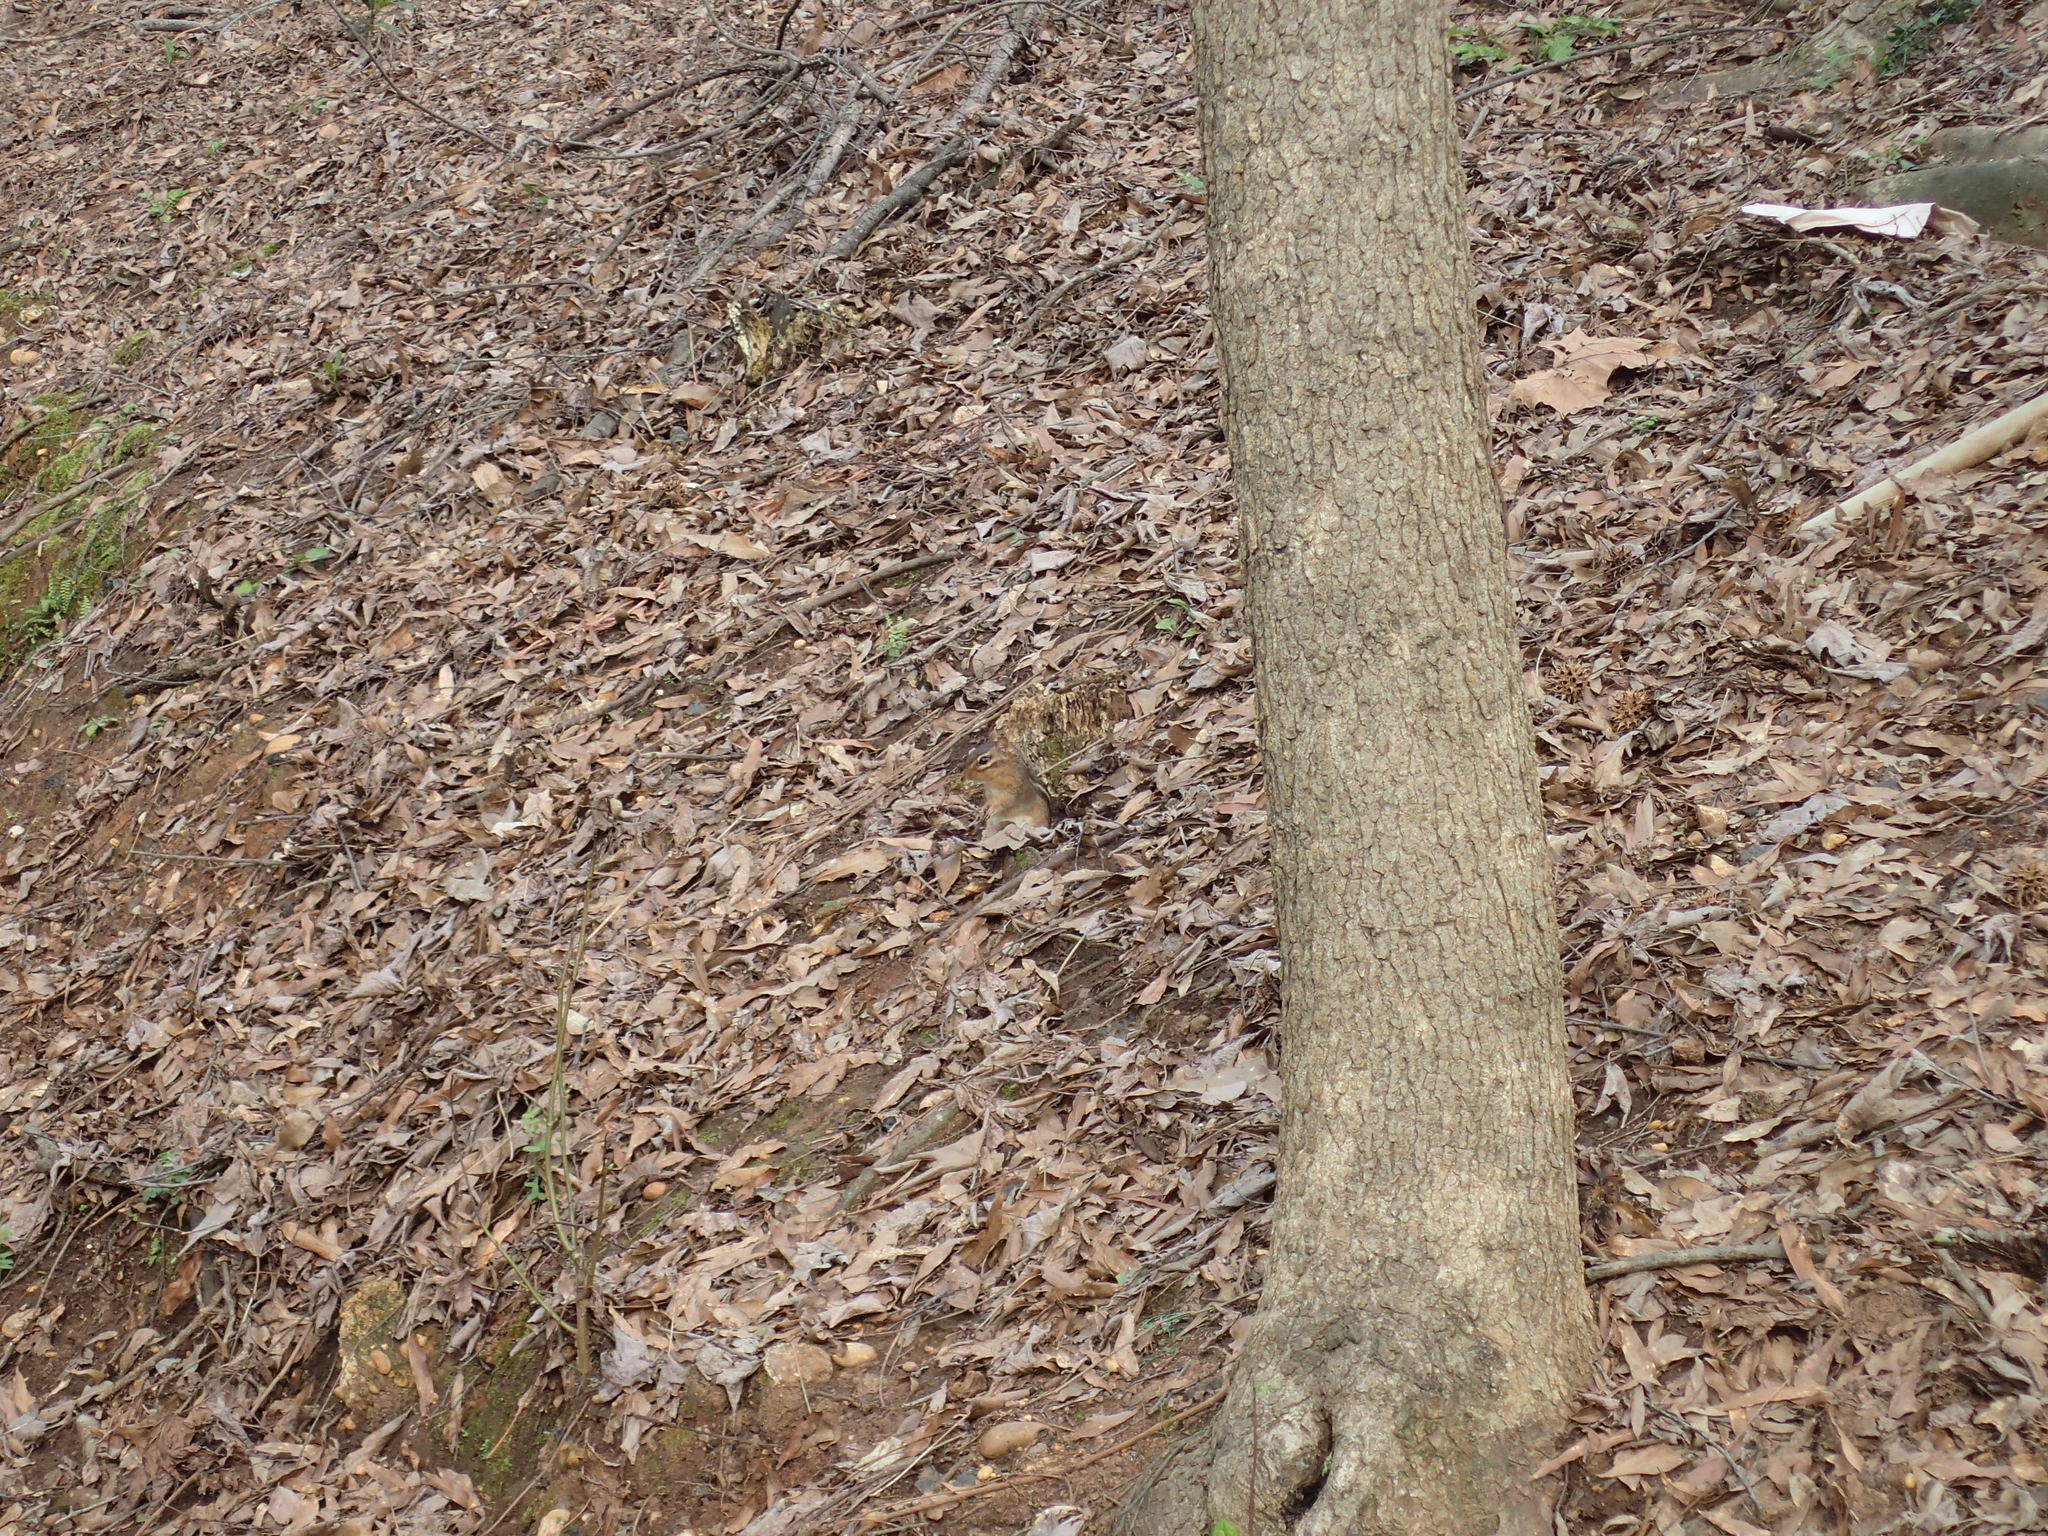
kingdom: Animalia
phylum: Chordata
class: Mammalia
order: Rodentia
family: Sciuridae
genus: Tamias
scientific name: Tamias striatus
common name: Eastern chipmunk
